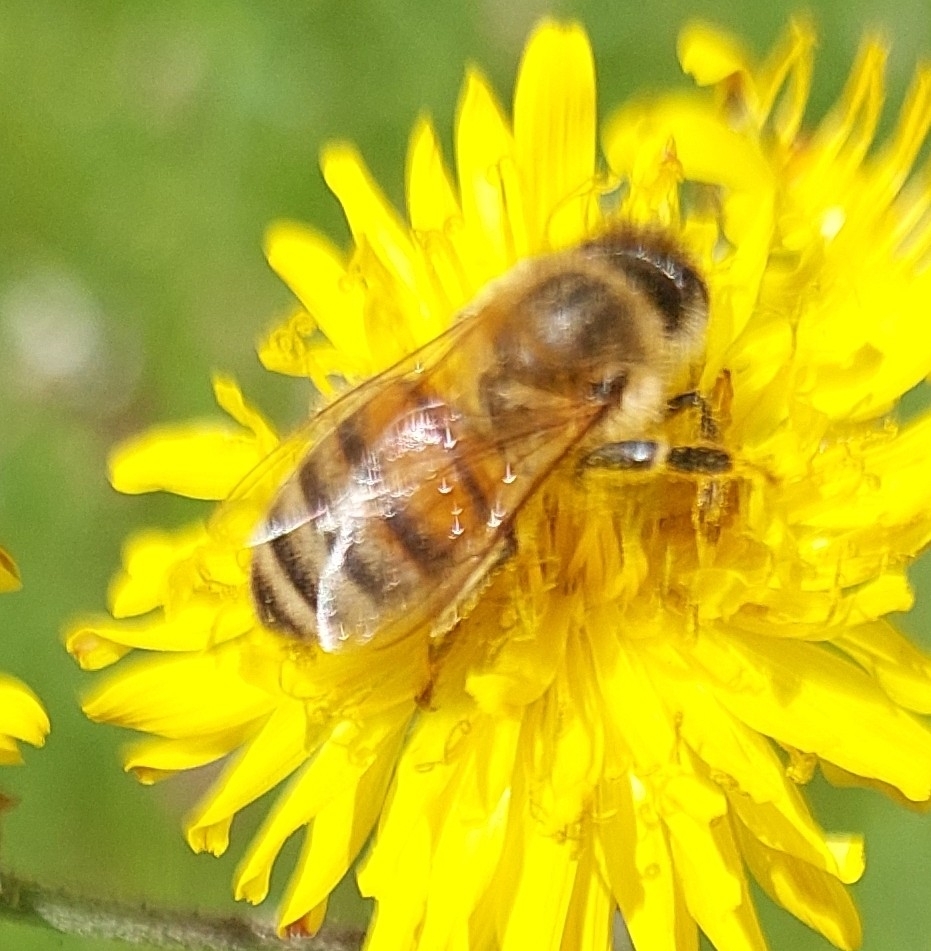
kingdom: Animalia
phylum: Arthropoda
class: Insecta
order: Hymenoptera
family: Apidae
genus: Apis
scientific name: Apis mellifera
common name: Honey bee
